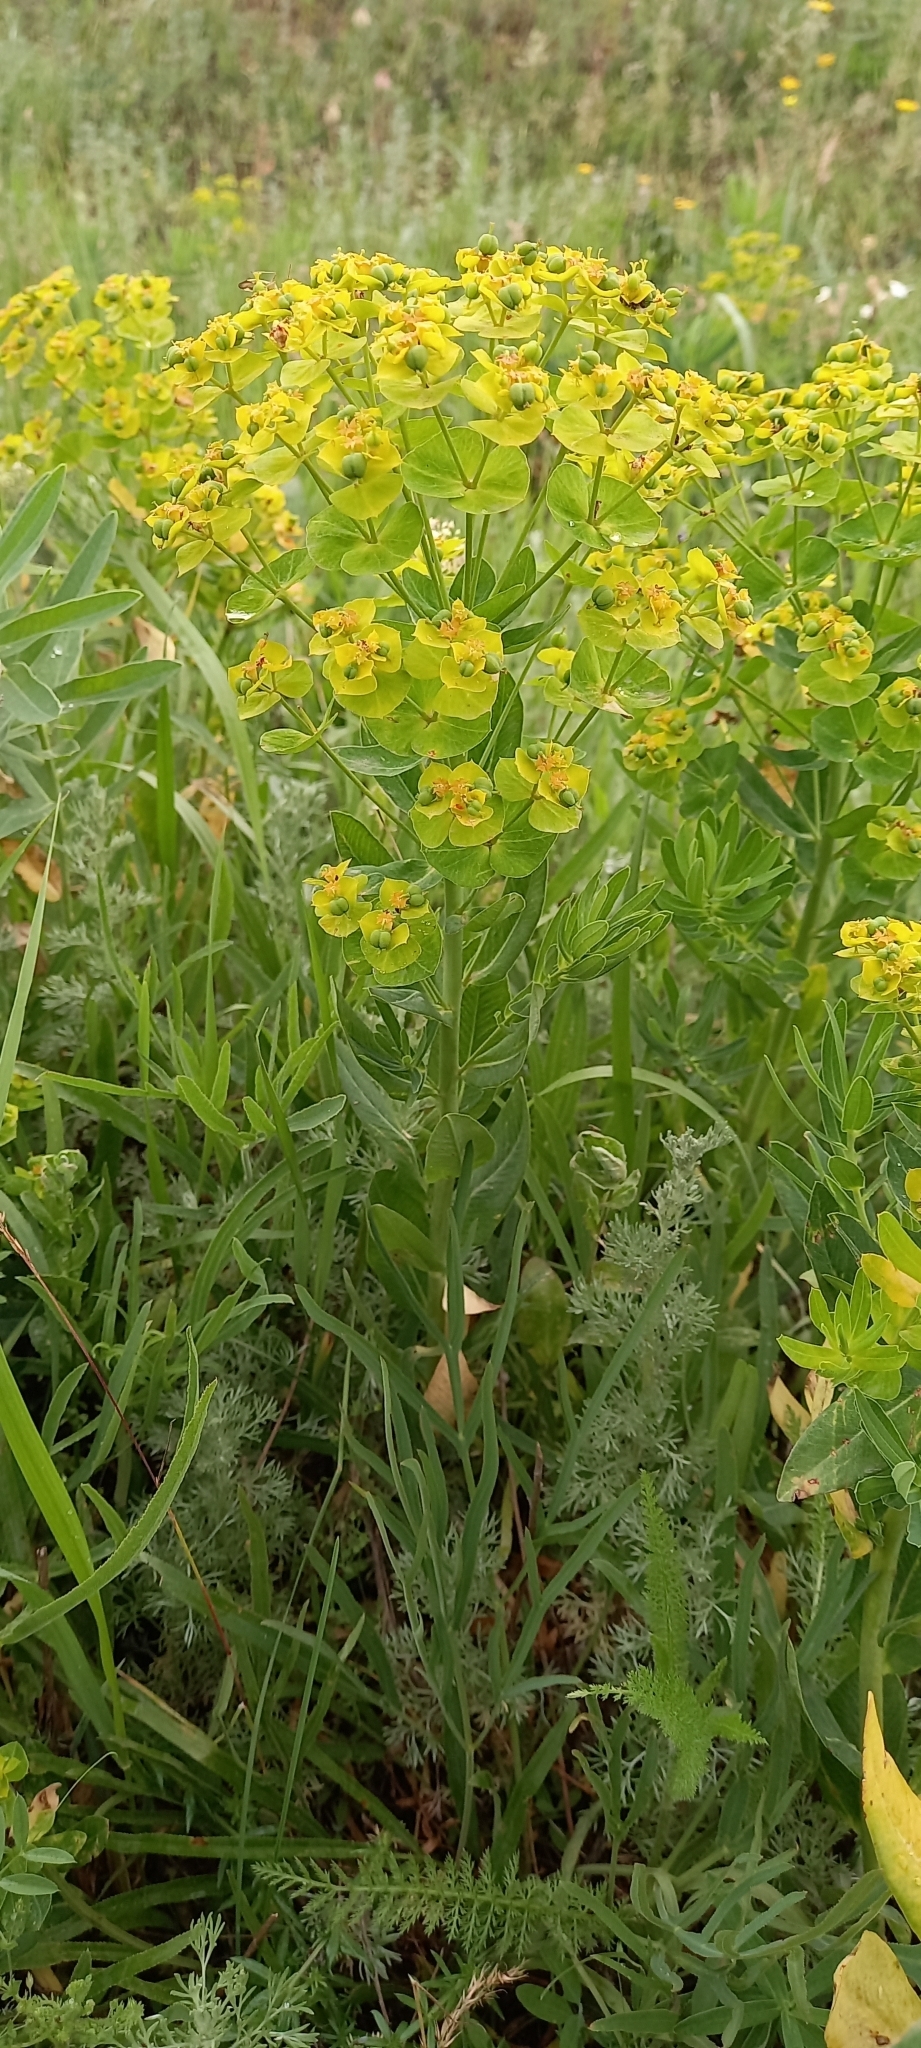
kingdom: Plantae
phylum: Tracheophyta
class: Magnoliopsida
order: Malpighiales
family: Euphorbiaceae
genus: Euphorbia
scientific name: Euphorbia iberica
